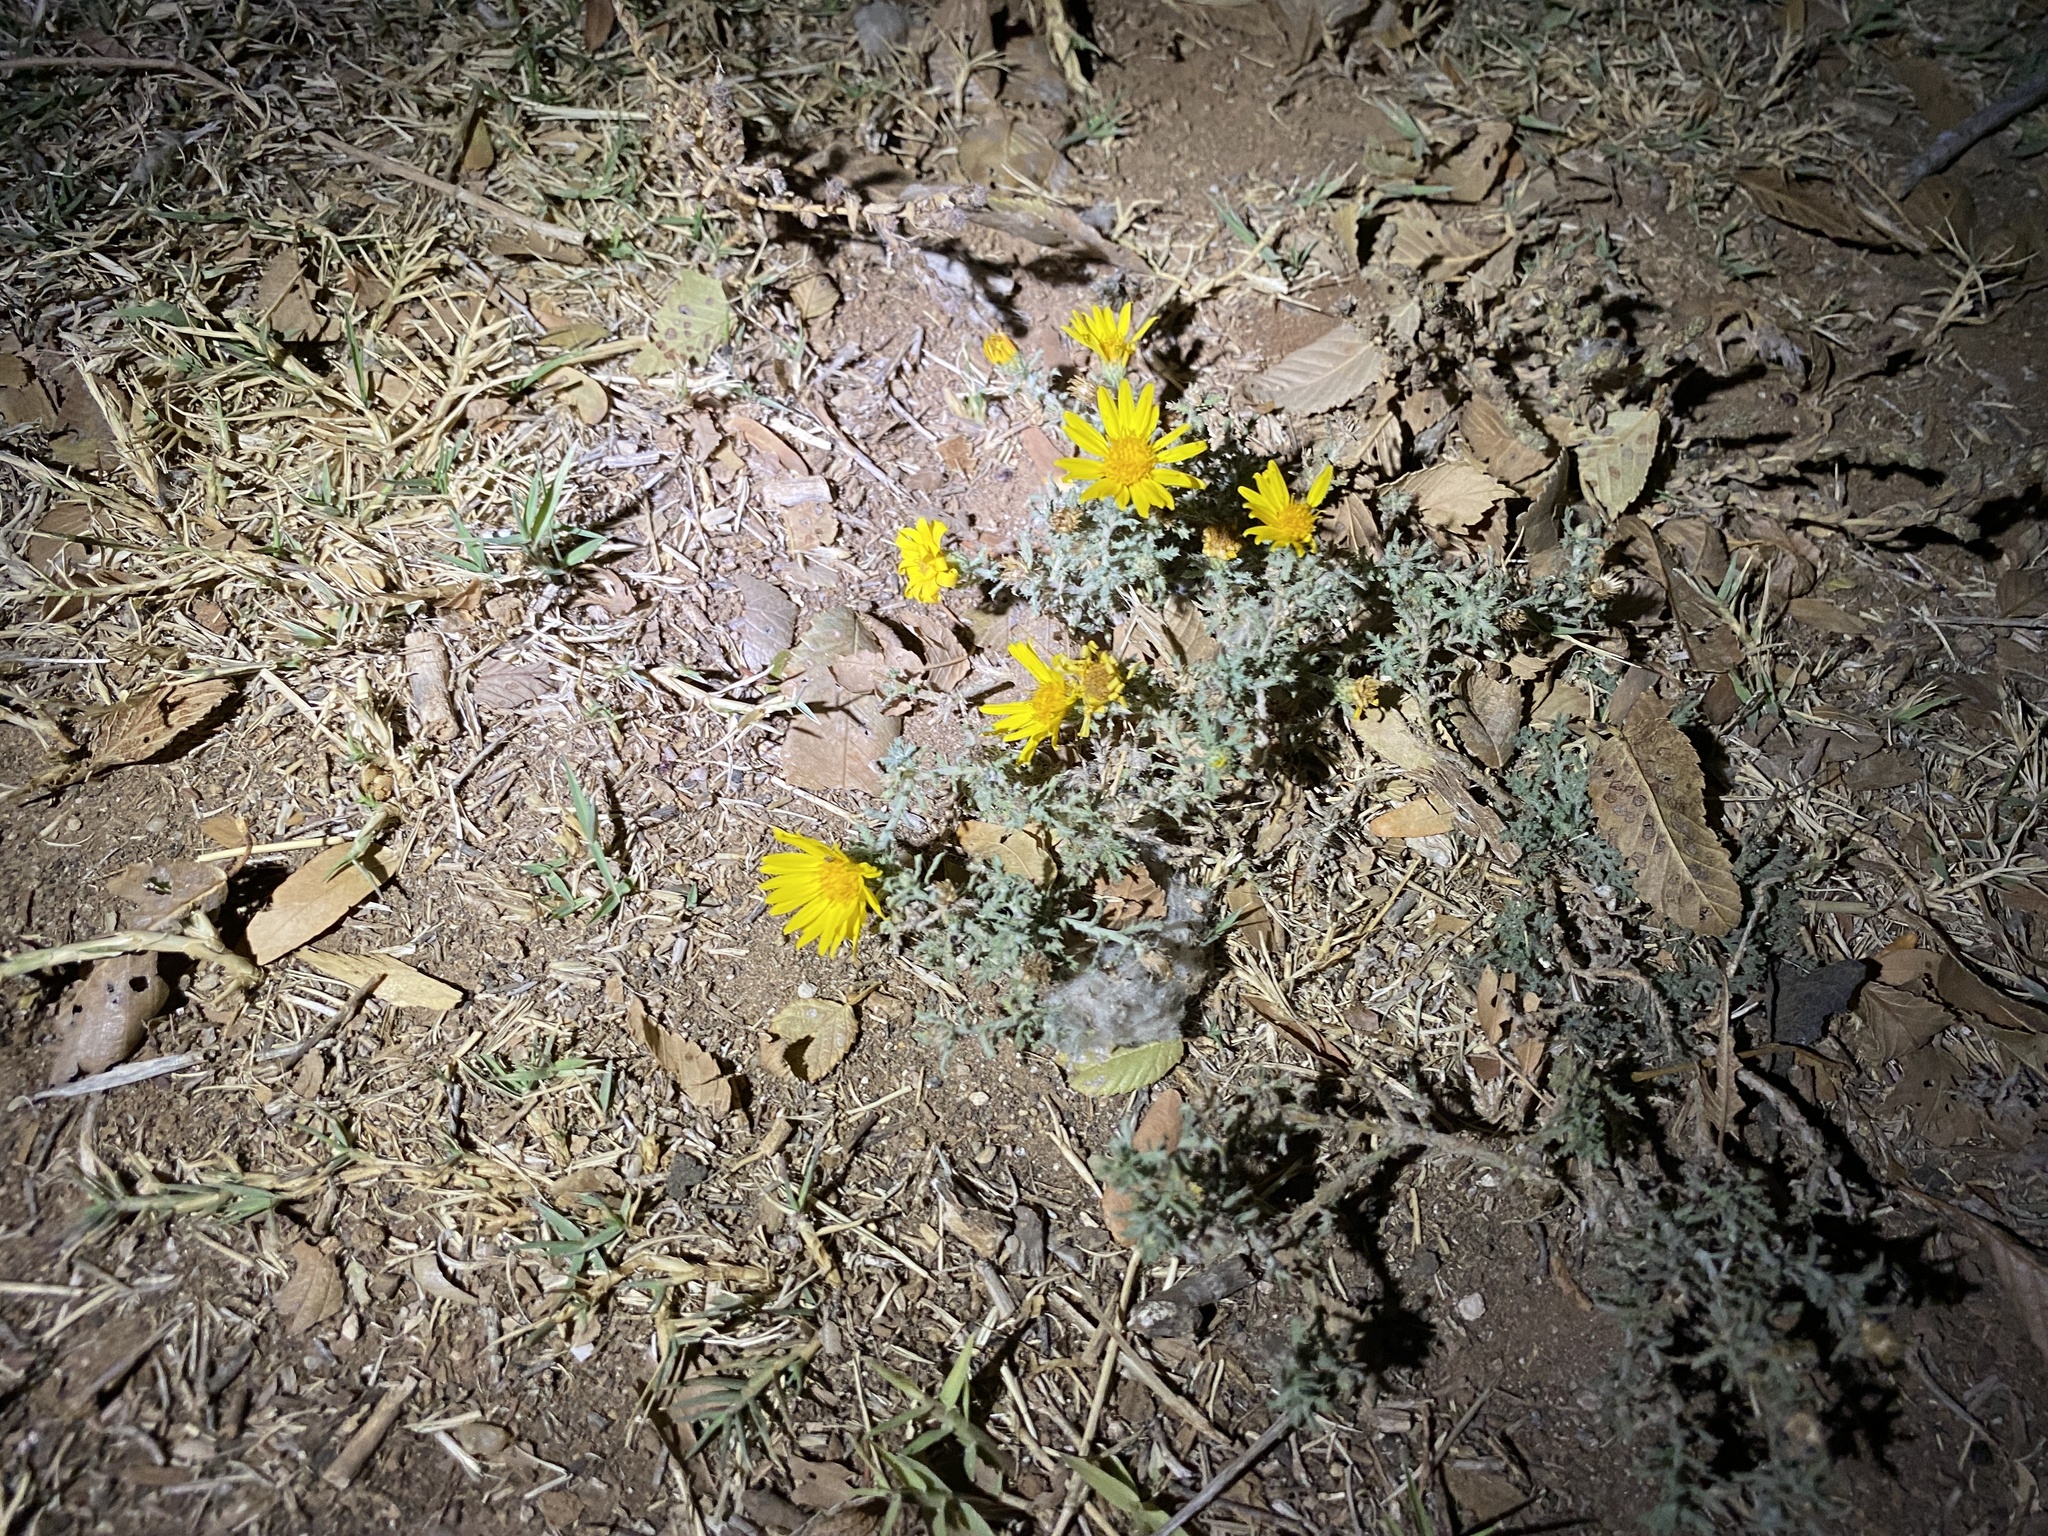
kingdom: Plantae
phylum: Tracheophyta
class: Magnoliopsida
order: Asterales
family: Asteraceae
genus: Xanthisma
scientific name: Xanthisma spinulosum
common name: Spiny goldenweed
